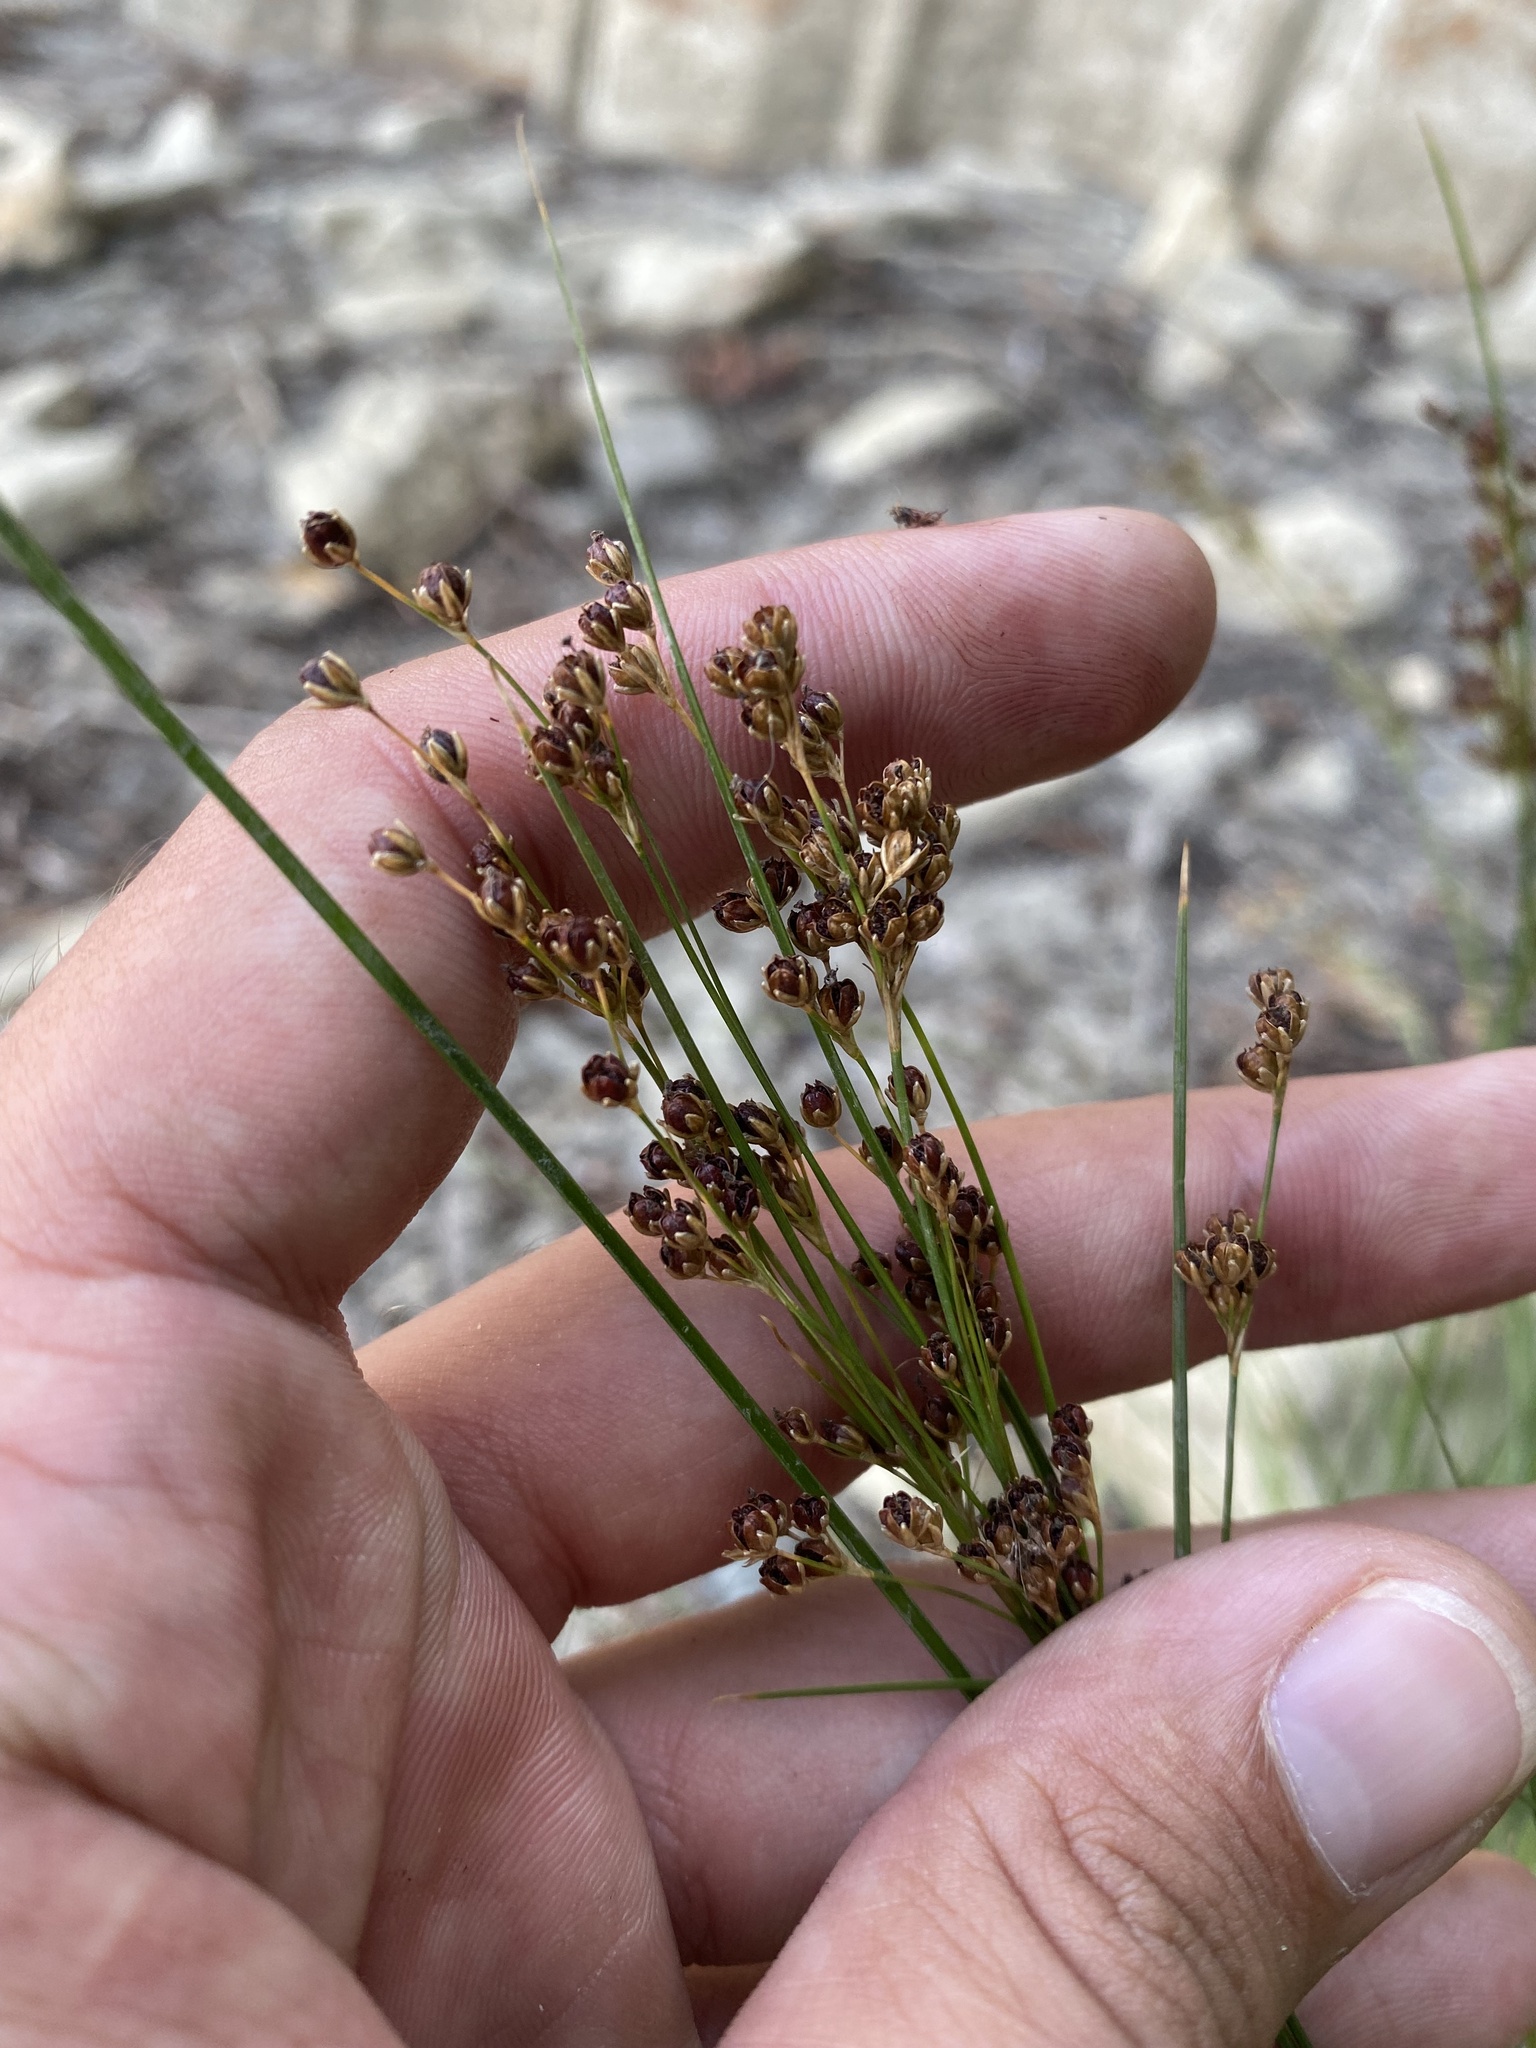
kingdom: Plantae
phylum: Tracheophyta
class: Liliopsida
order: Poales
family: Juncaceae
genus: Juncus
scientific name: Juncus compressus
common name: Round-fruited rush
